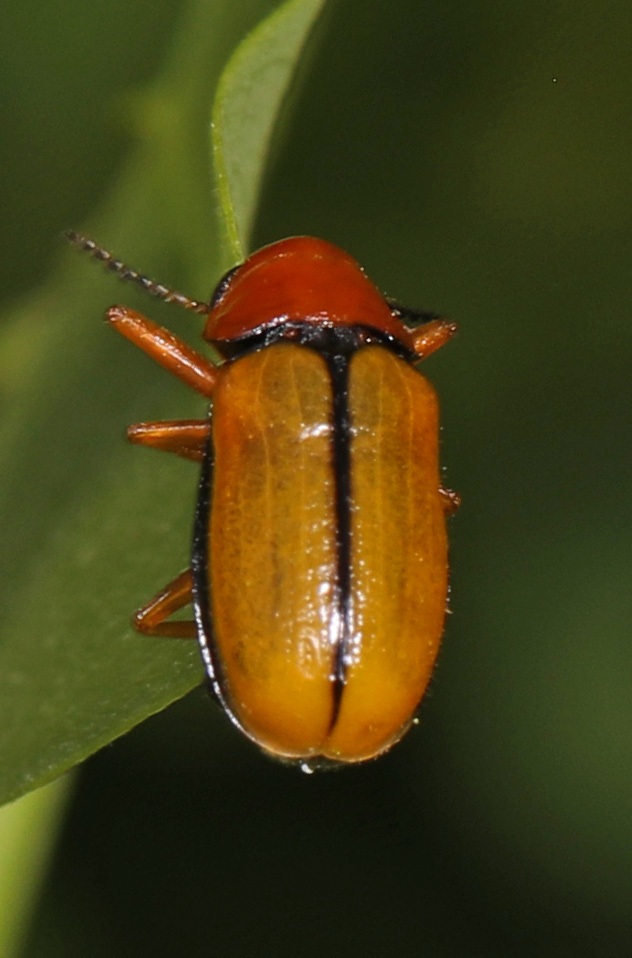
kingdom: Animalia
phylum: Arthropoda
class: Insecta
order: Coleoptera
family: Chrysomelidae
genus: Anomoea
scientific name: Anomoea laticlavia
